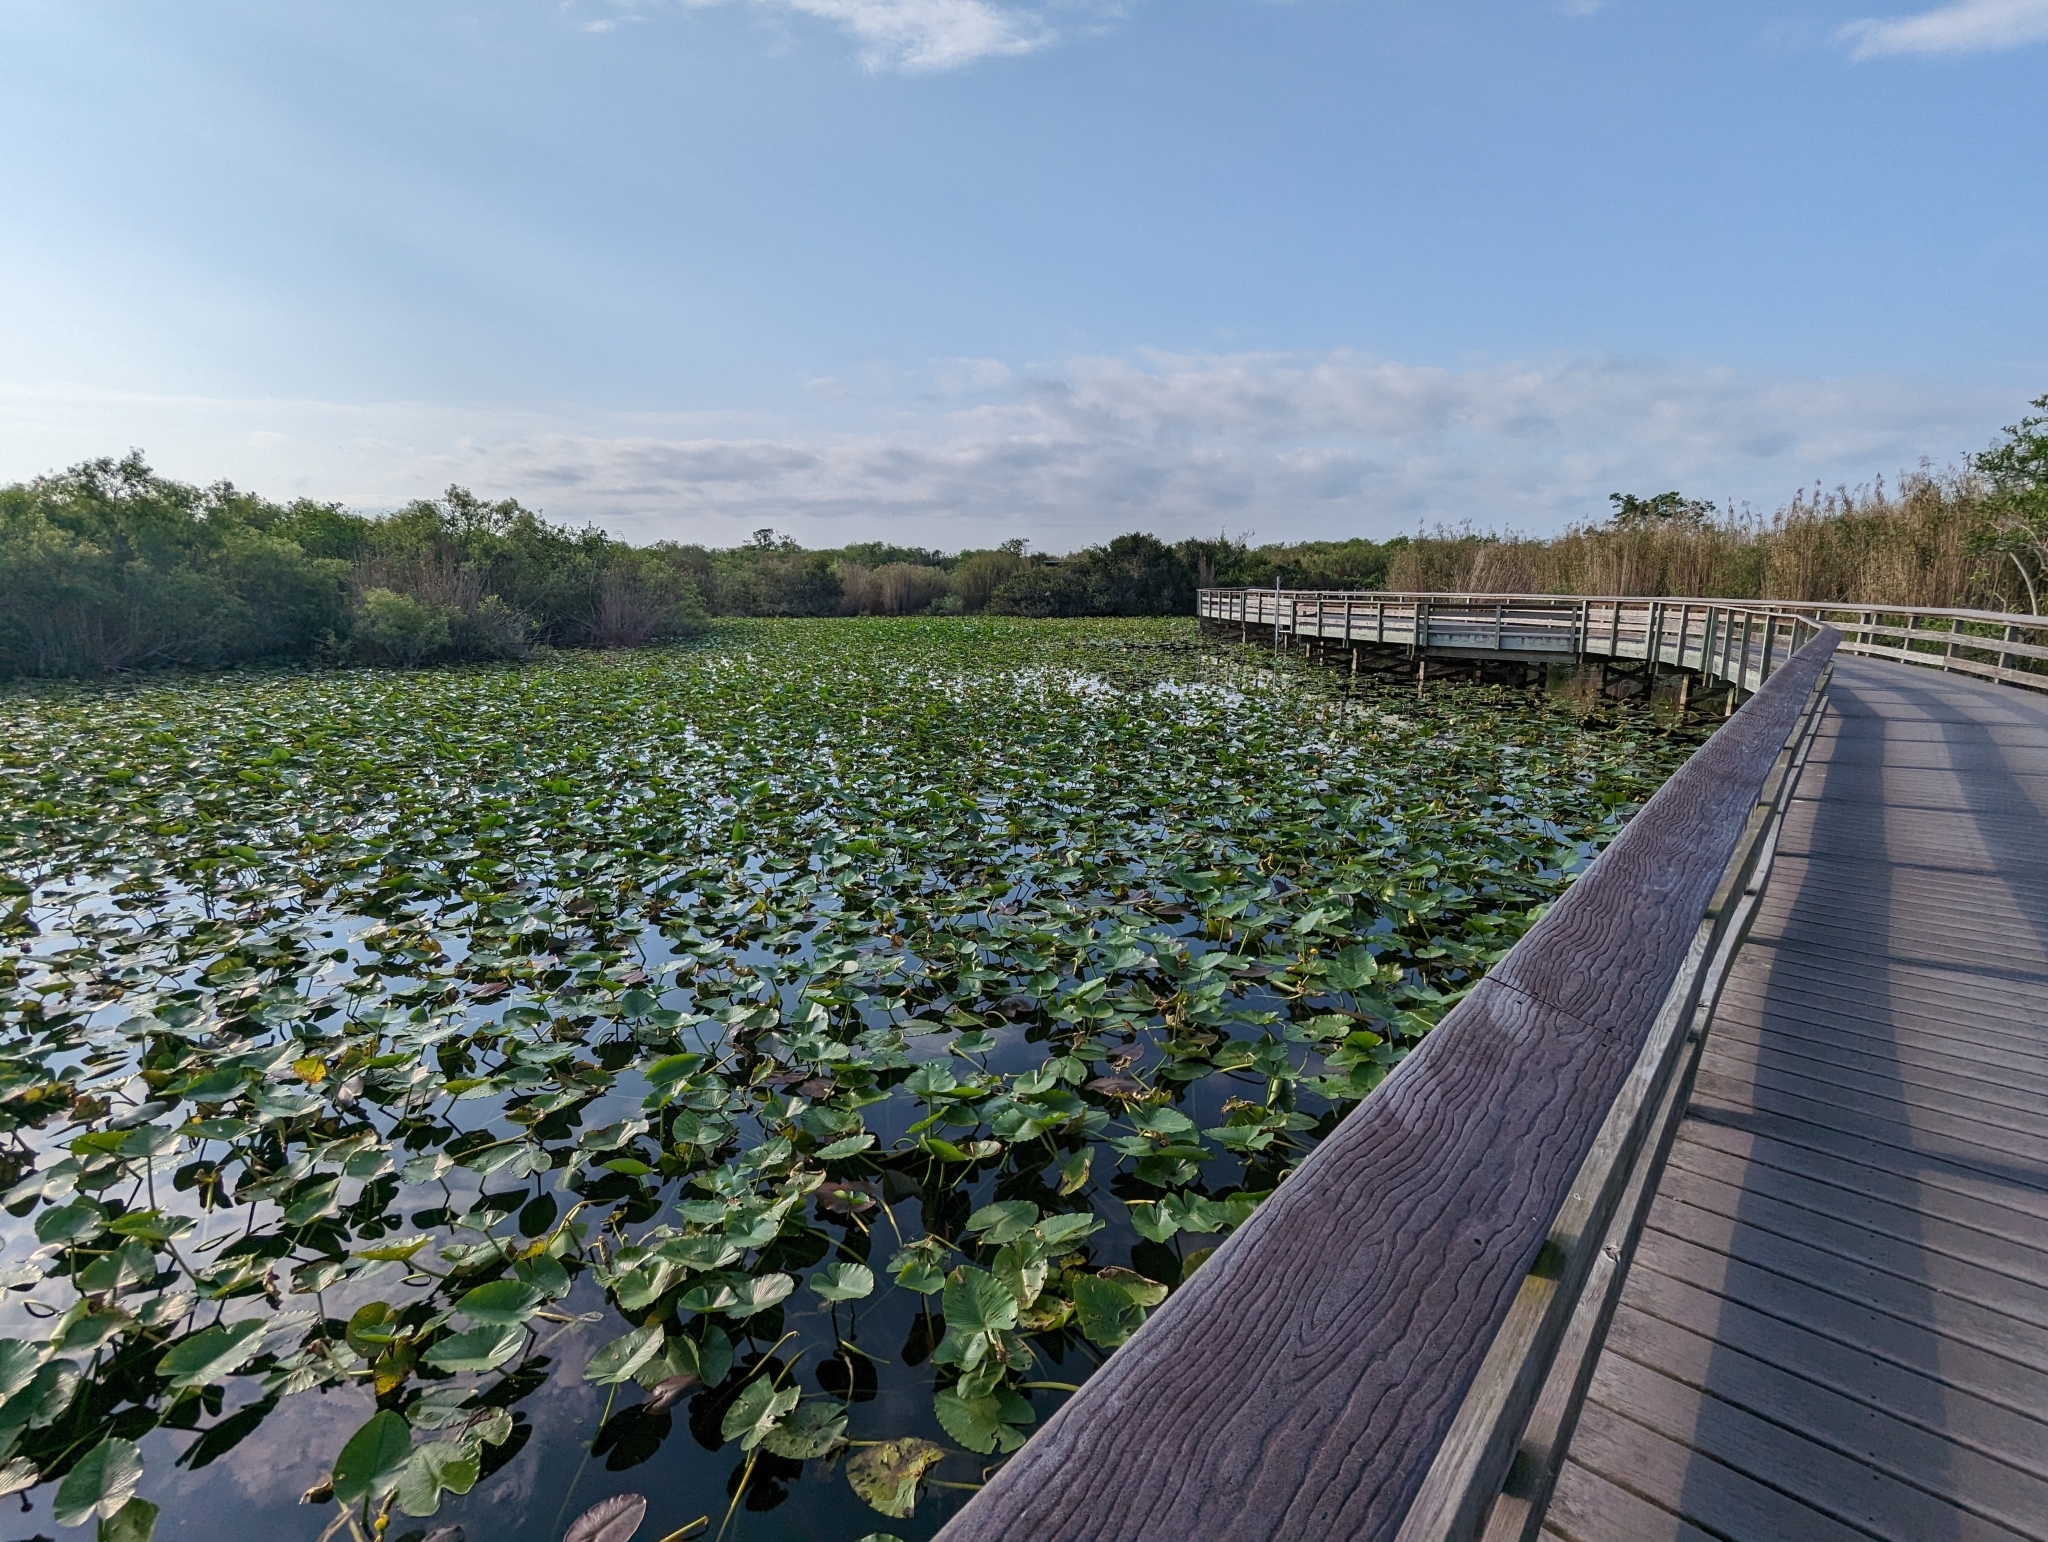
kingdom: Plantae
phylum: Tracheophyta
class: Magnoliopsida
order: Nymphaeales
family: Nymphaeaceae
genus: Nuphar
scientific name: Nuphar advena
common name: Spatter-dock
